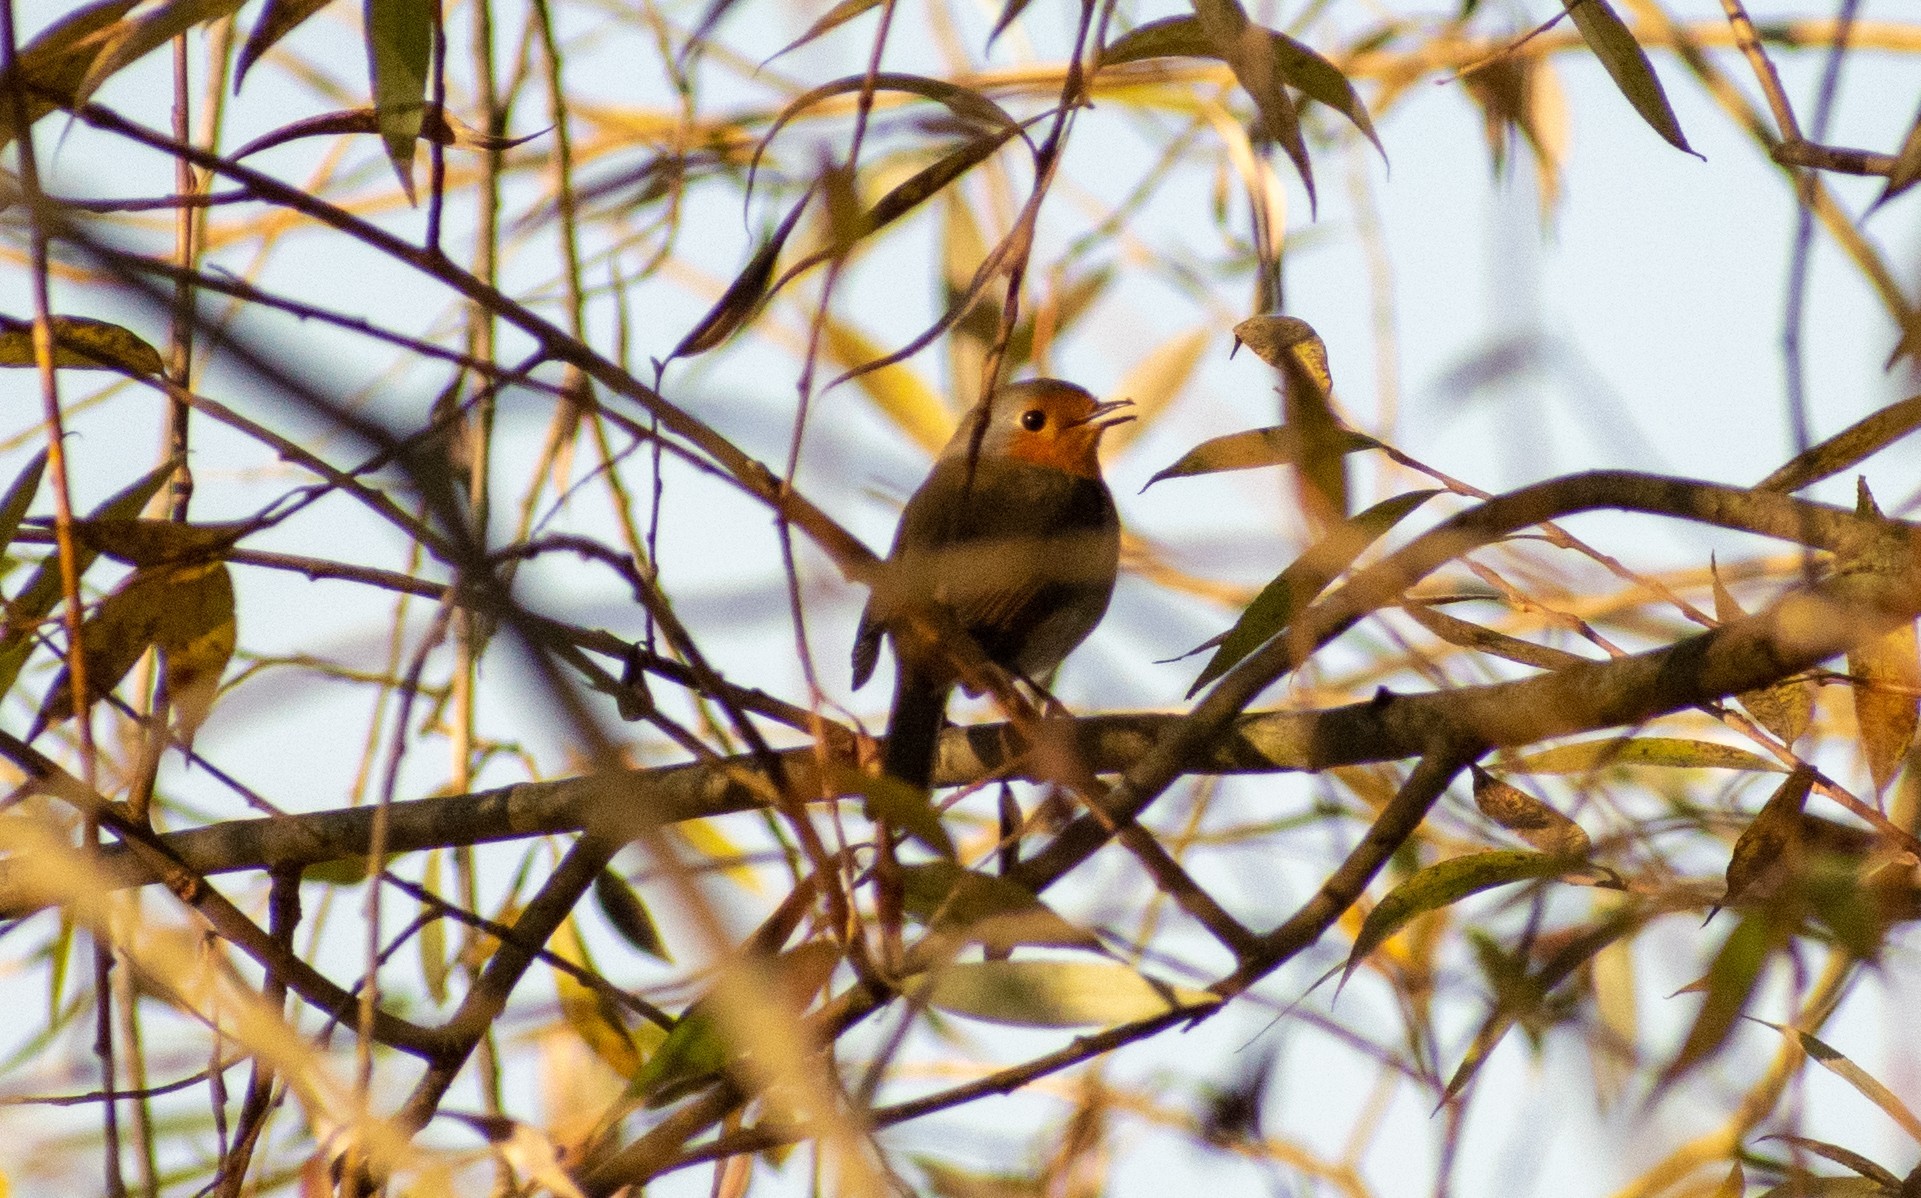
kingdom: Animalia
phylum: Chordata
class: Aves
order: Passeriformes
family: Muscicapidae
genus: Erithacus
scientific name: Erithacus rubecula
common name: European robin
